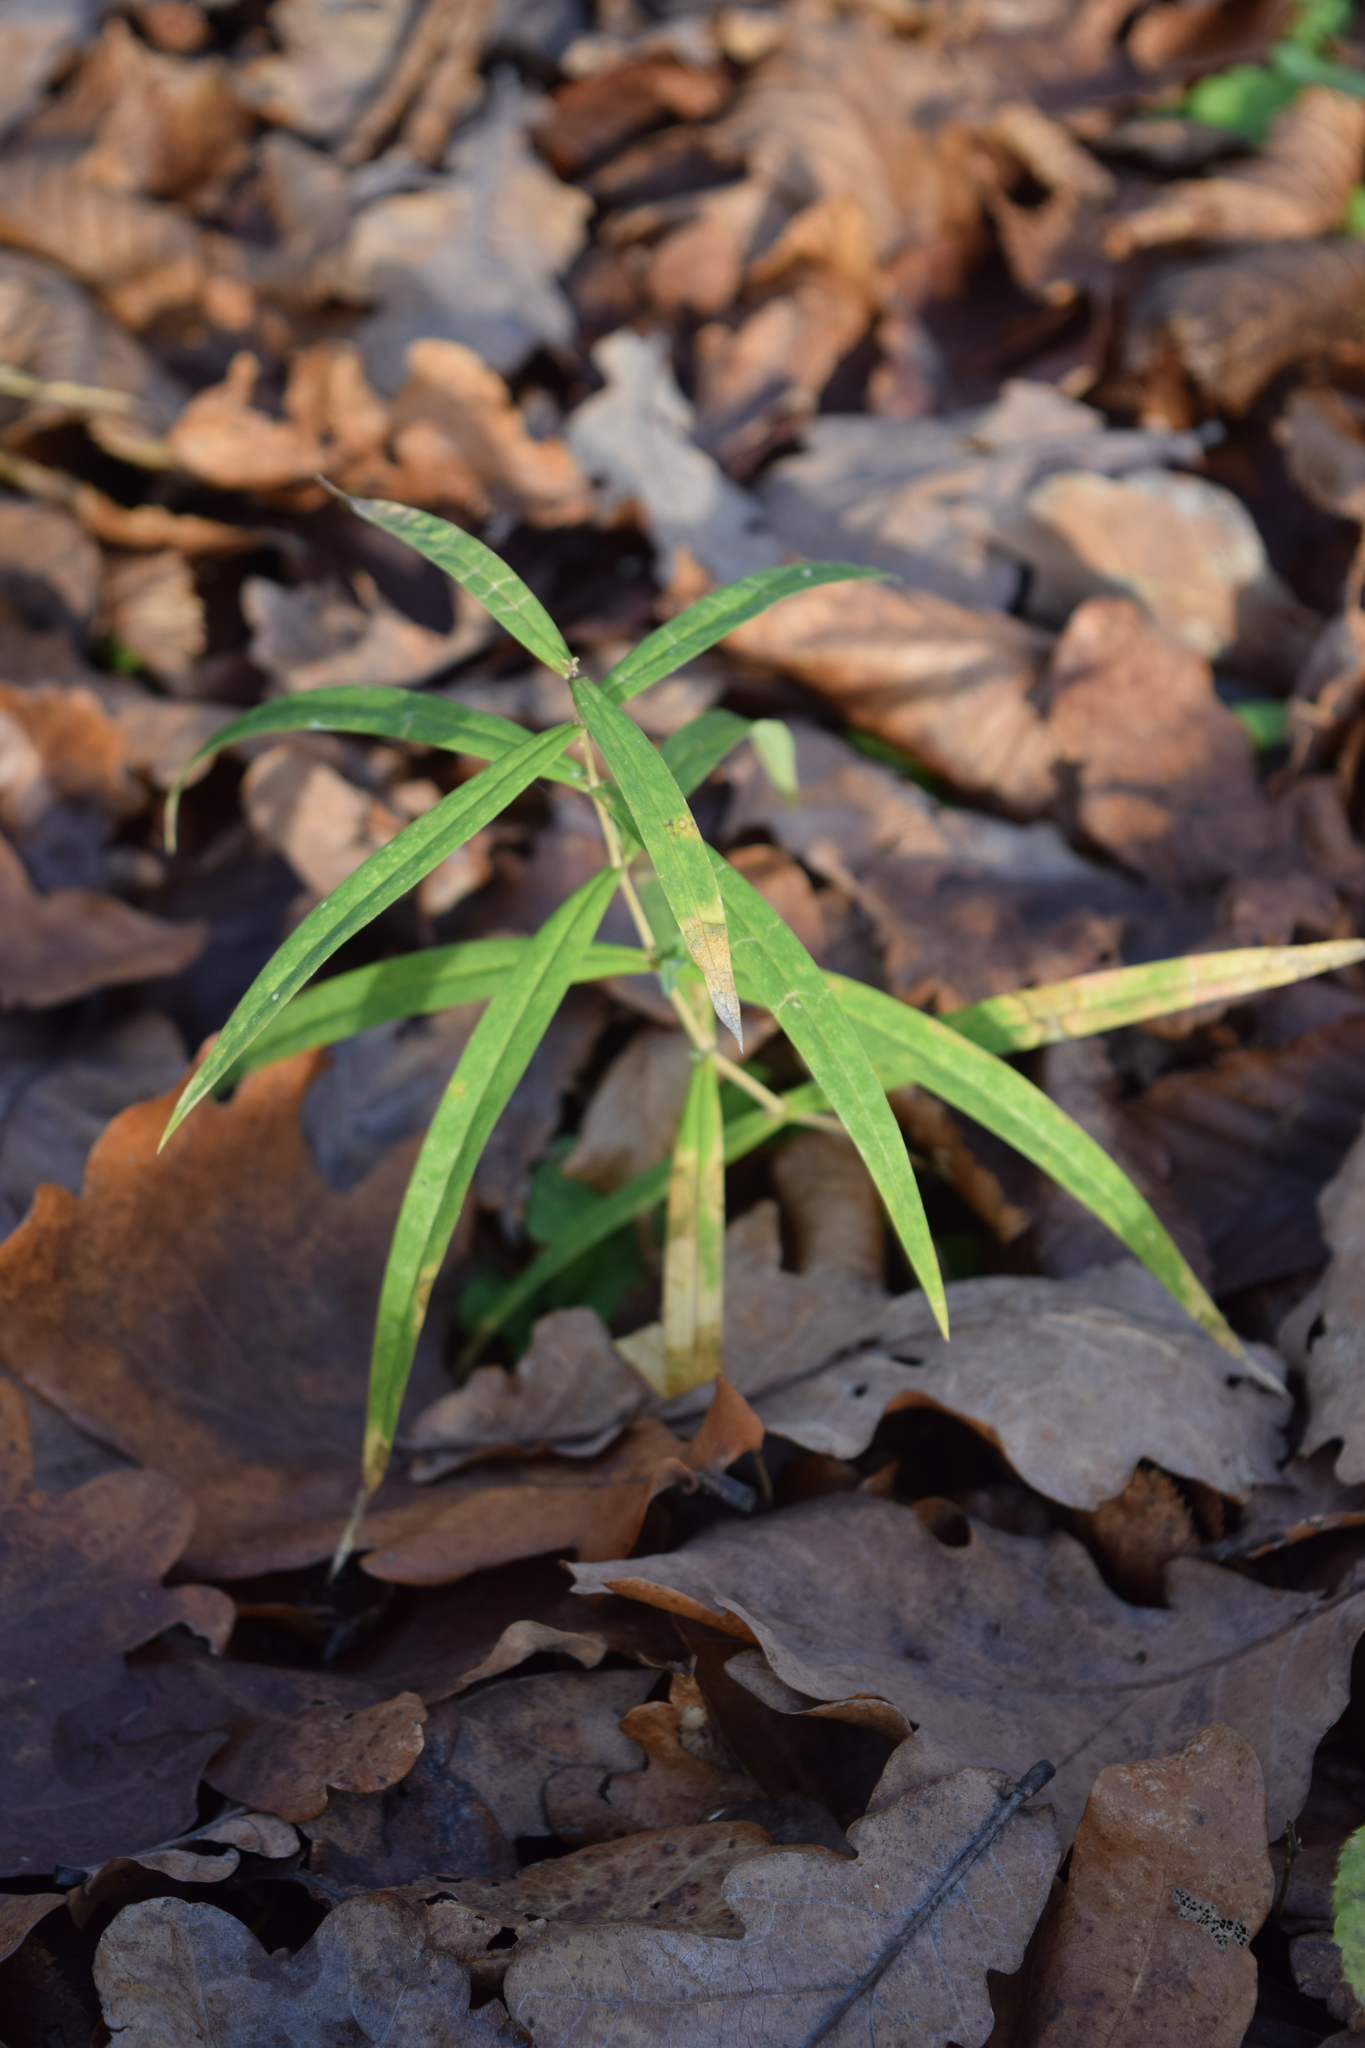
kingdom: Plantae
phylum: Tracheophyta
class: Magnoliopsida
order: Caryophyllales
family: Caryophyllaceae
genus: Rabelera
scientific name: Rabelera holostea
